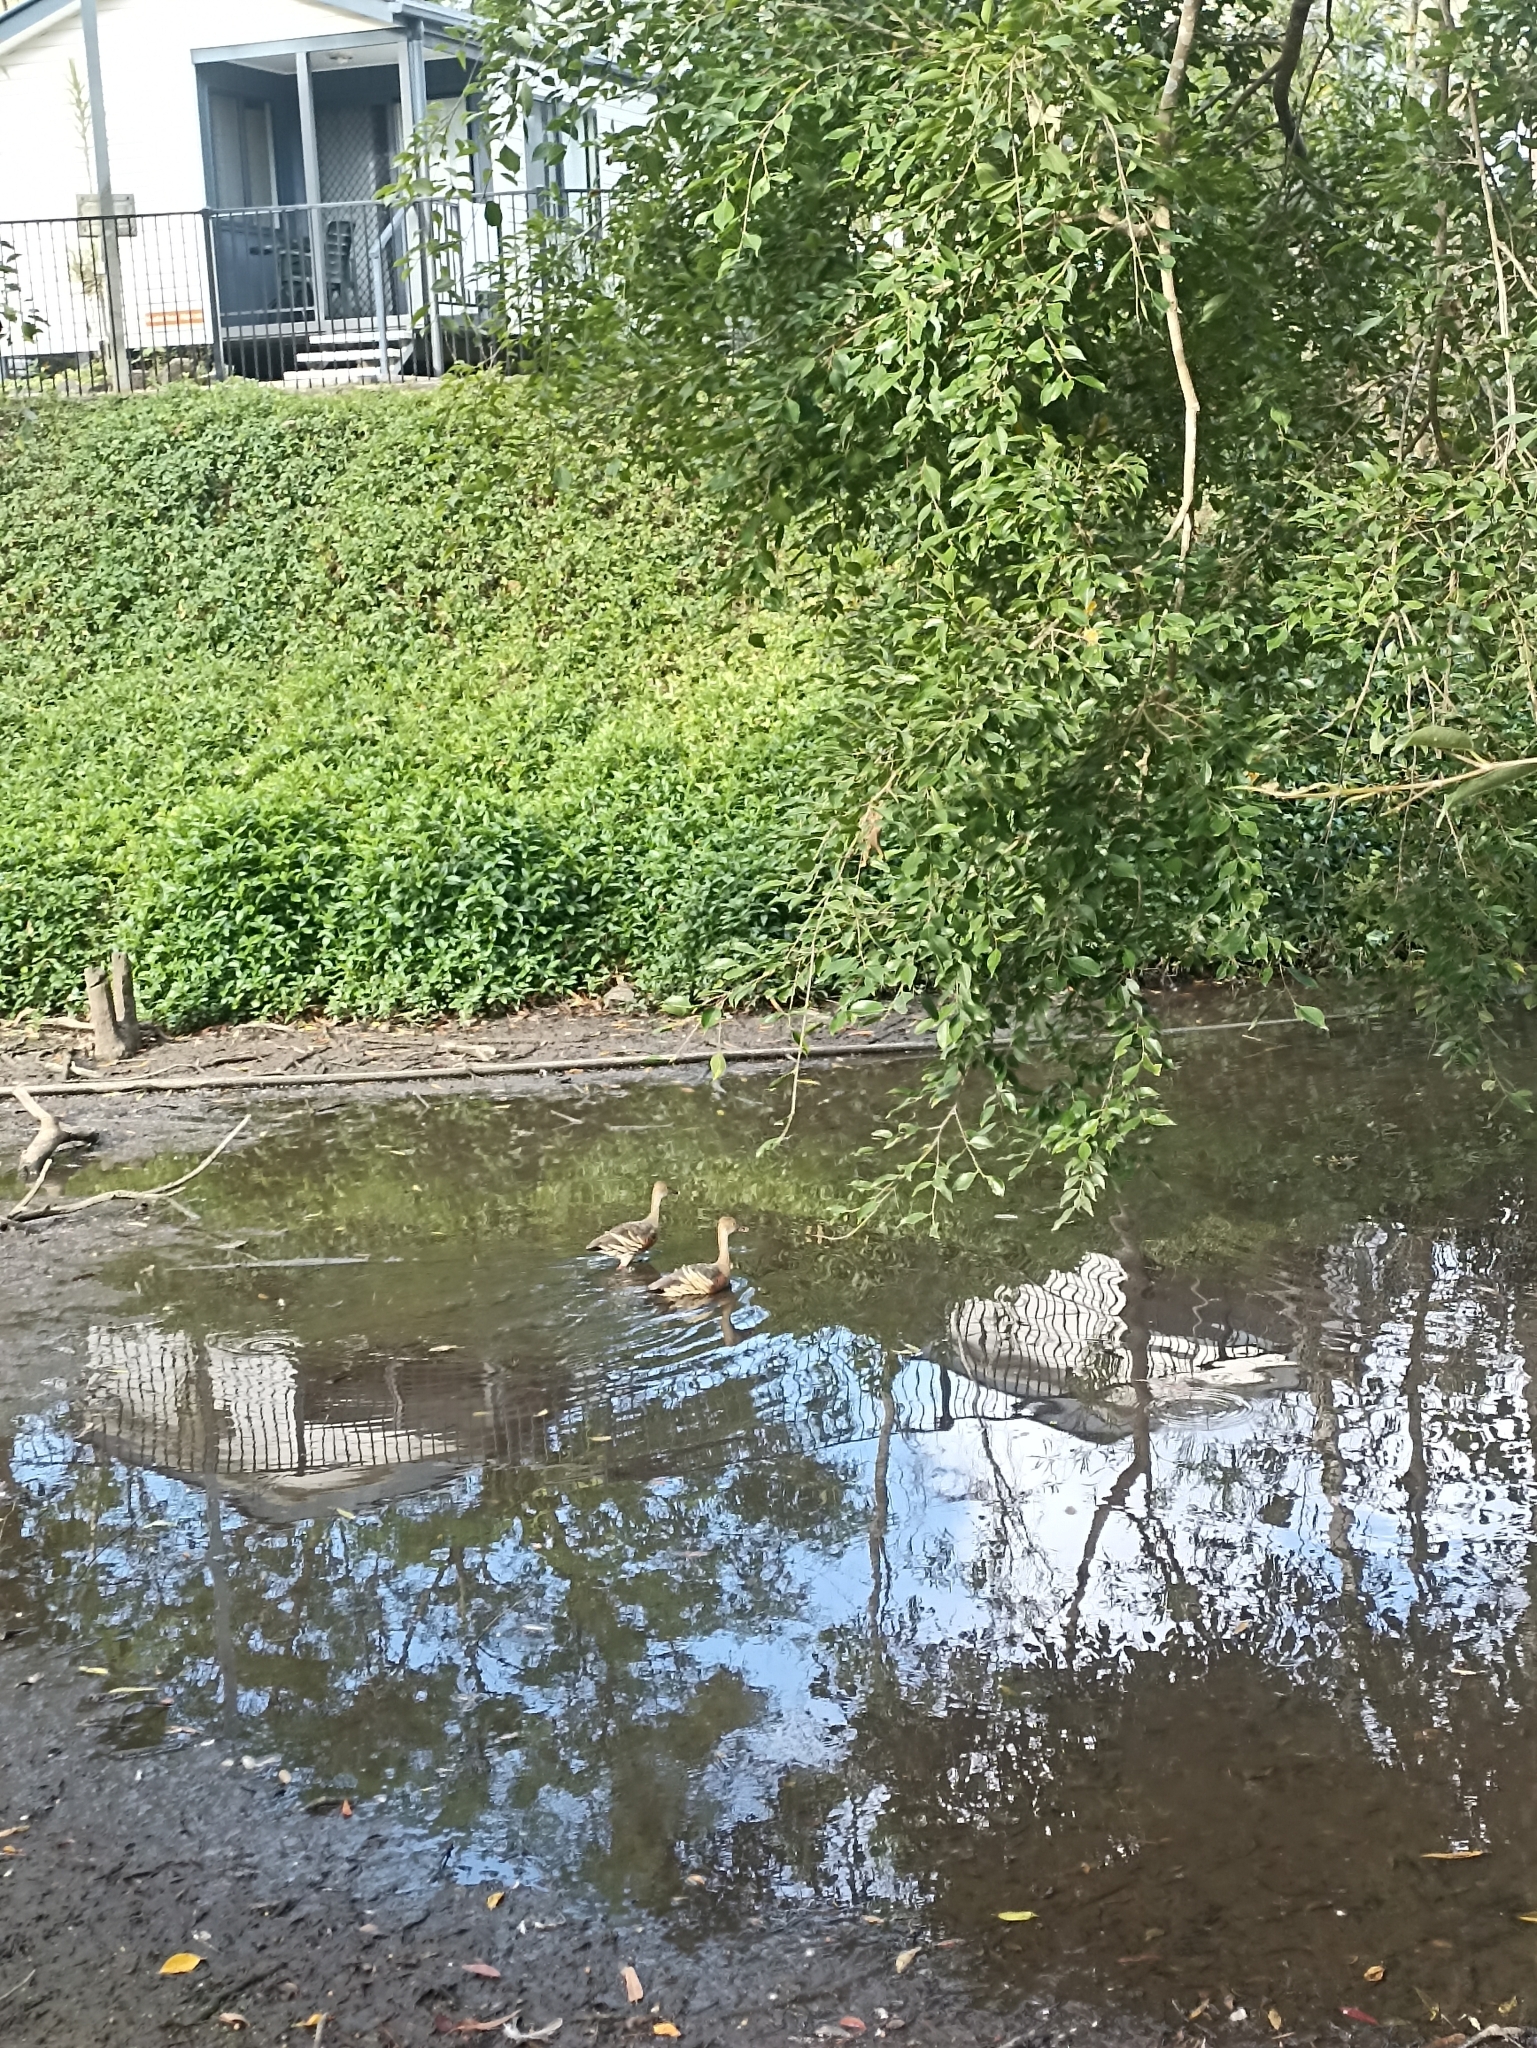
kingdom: Animalia
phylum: Chordata
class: Aves
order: Anseriformes
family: Anatidae
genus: Dendrocygna
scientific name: Dendrocygna eytoni
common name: Plumed whistling-duck
